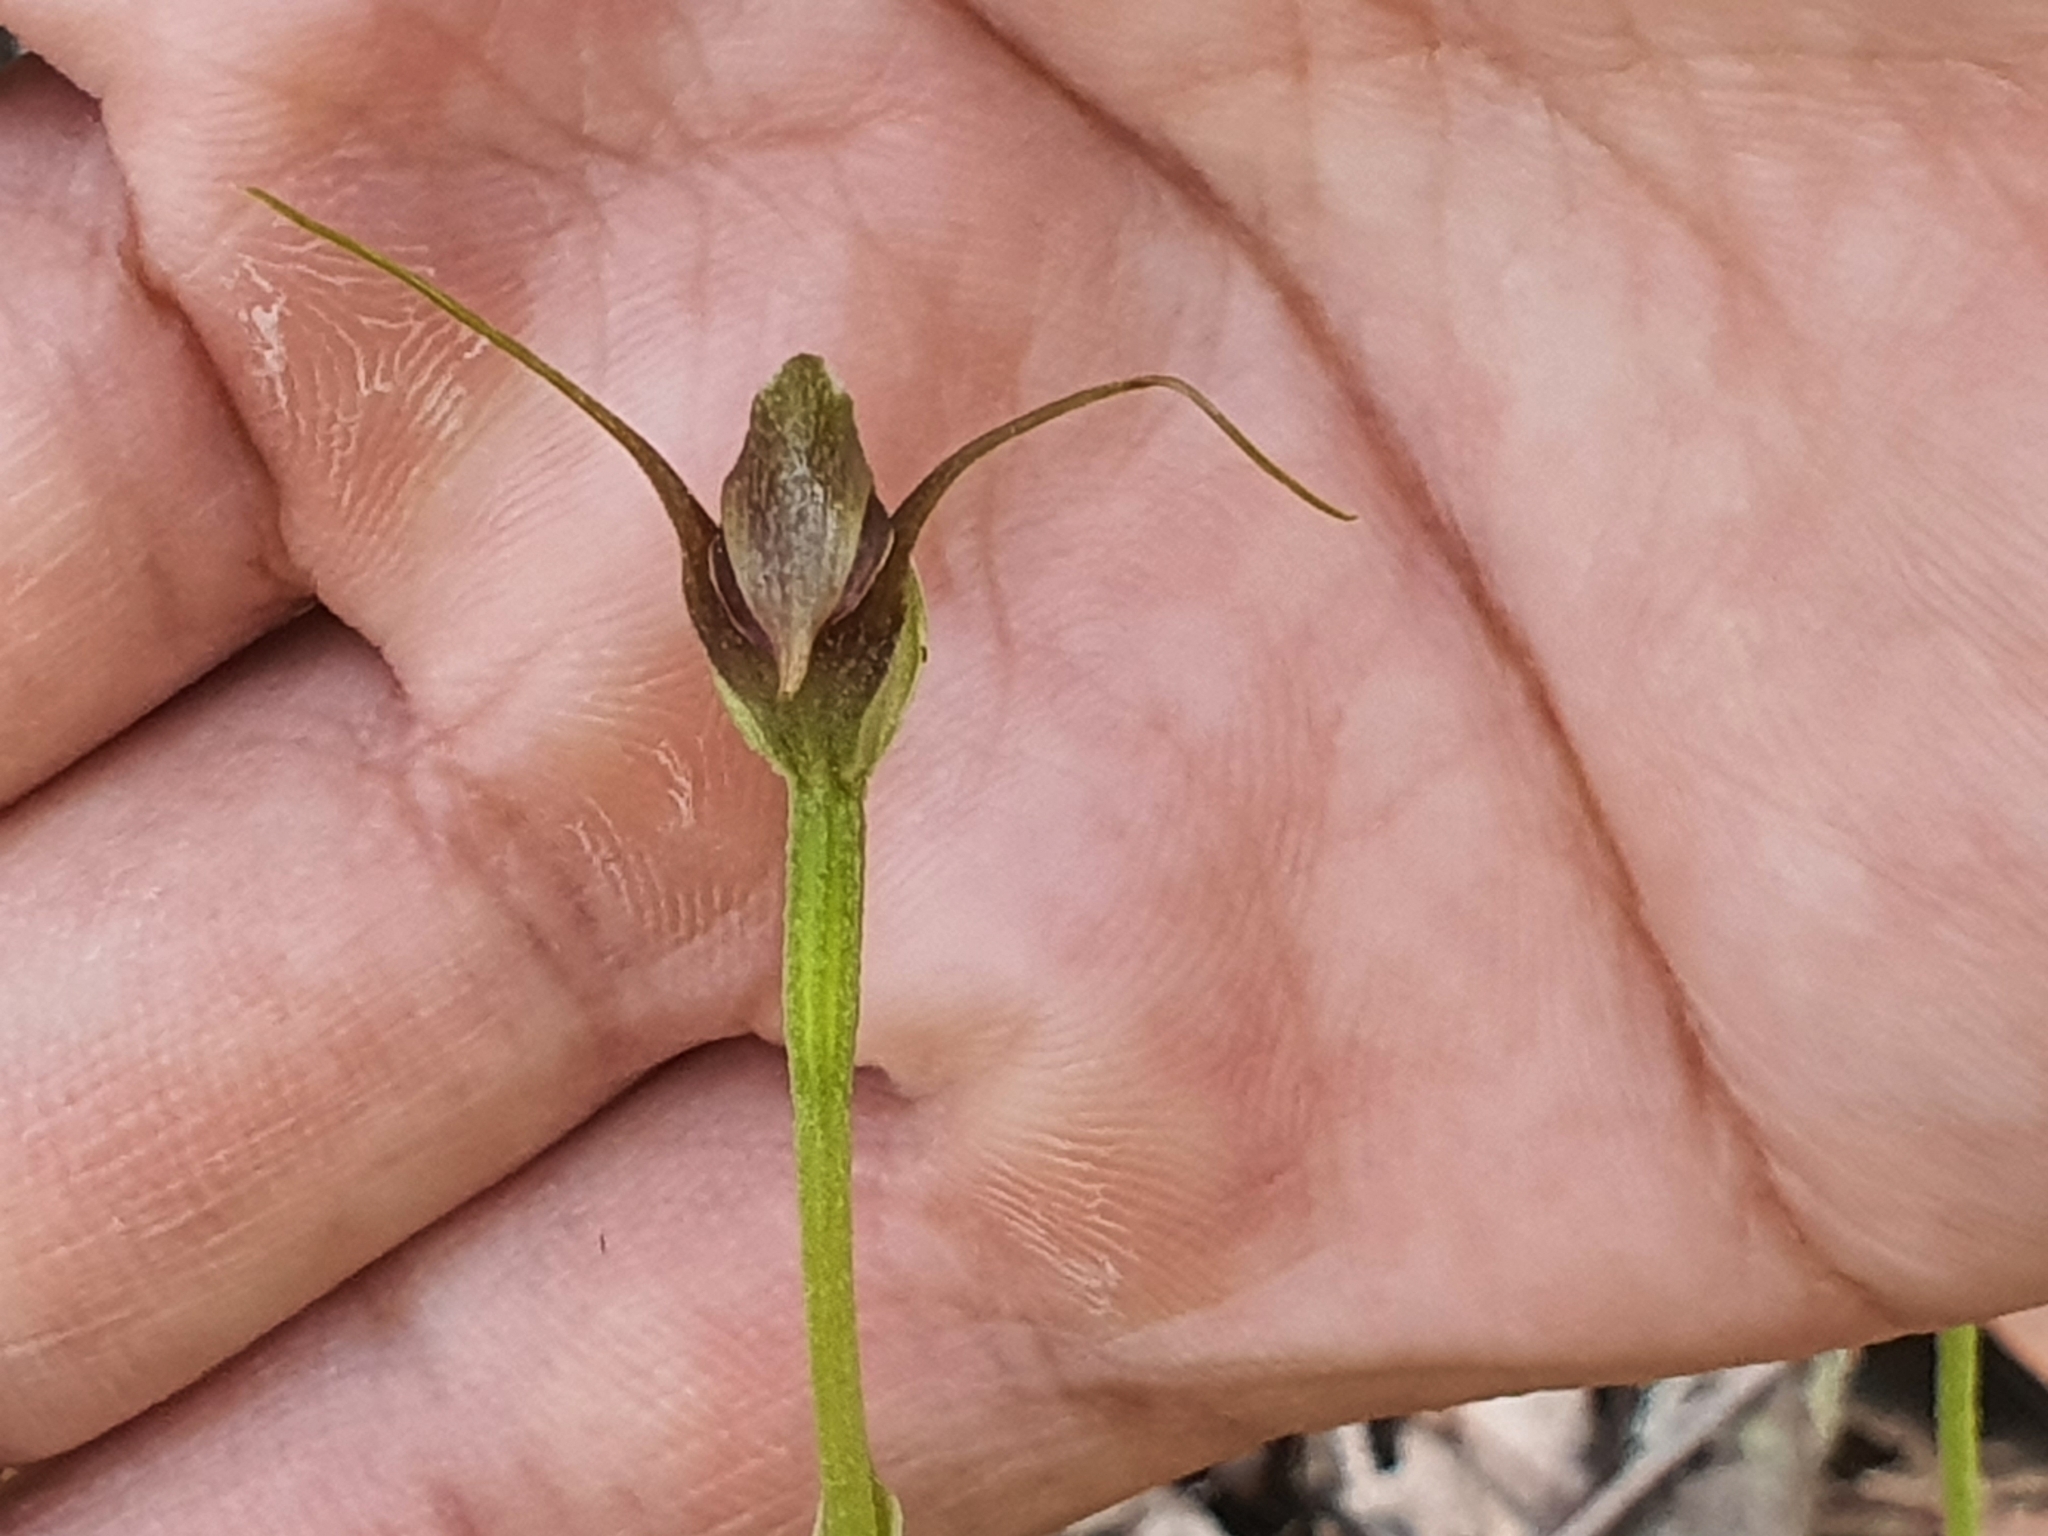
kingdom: Plantae
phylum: Tracheophyta
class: Liliopsida
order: Asparagales
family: Orchidaceae
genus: Pterostylis
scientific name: Pterostylis pedunculata
